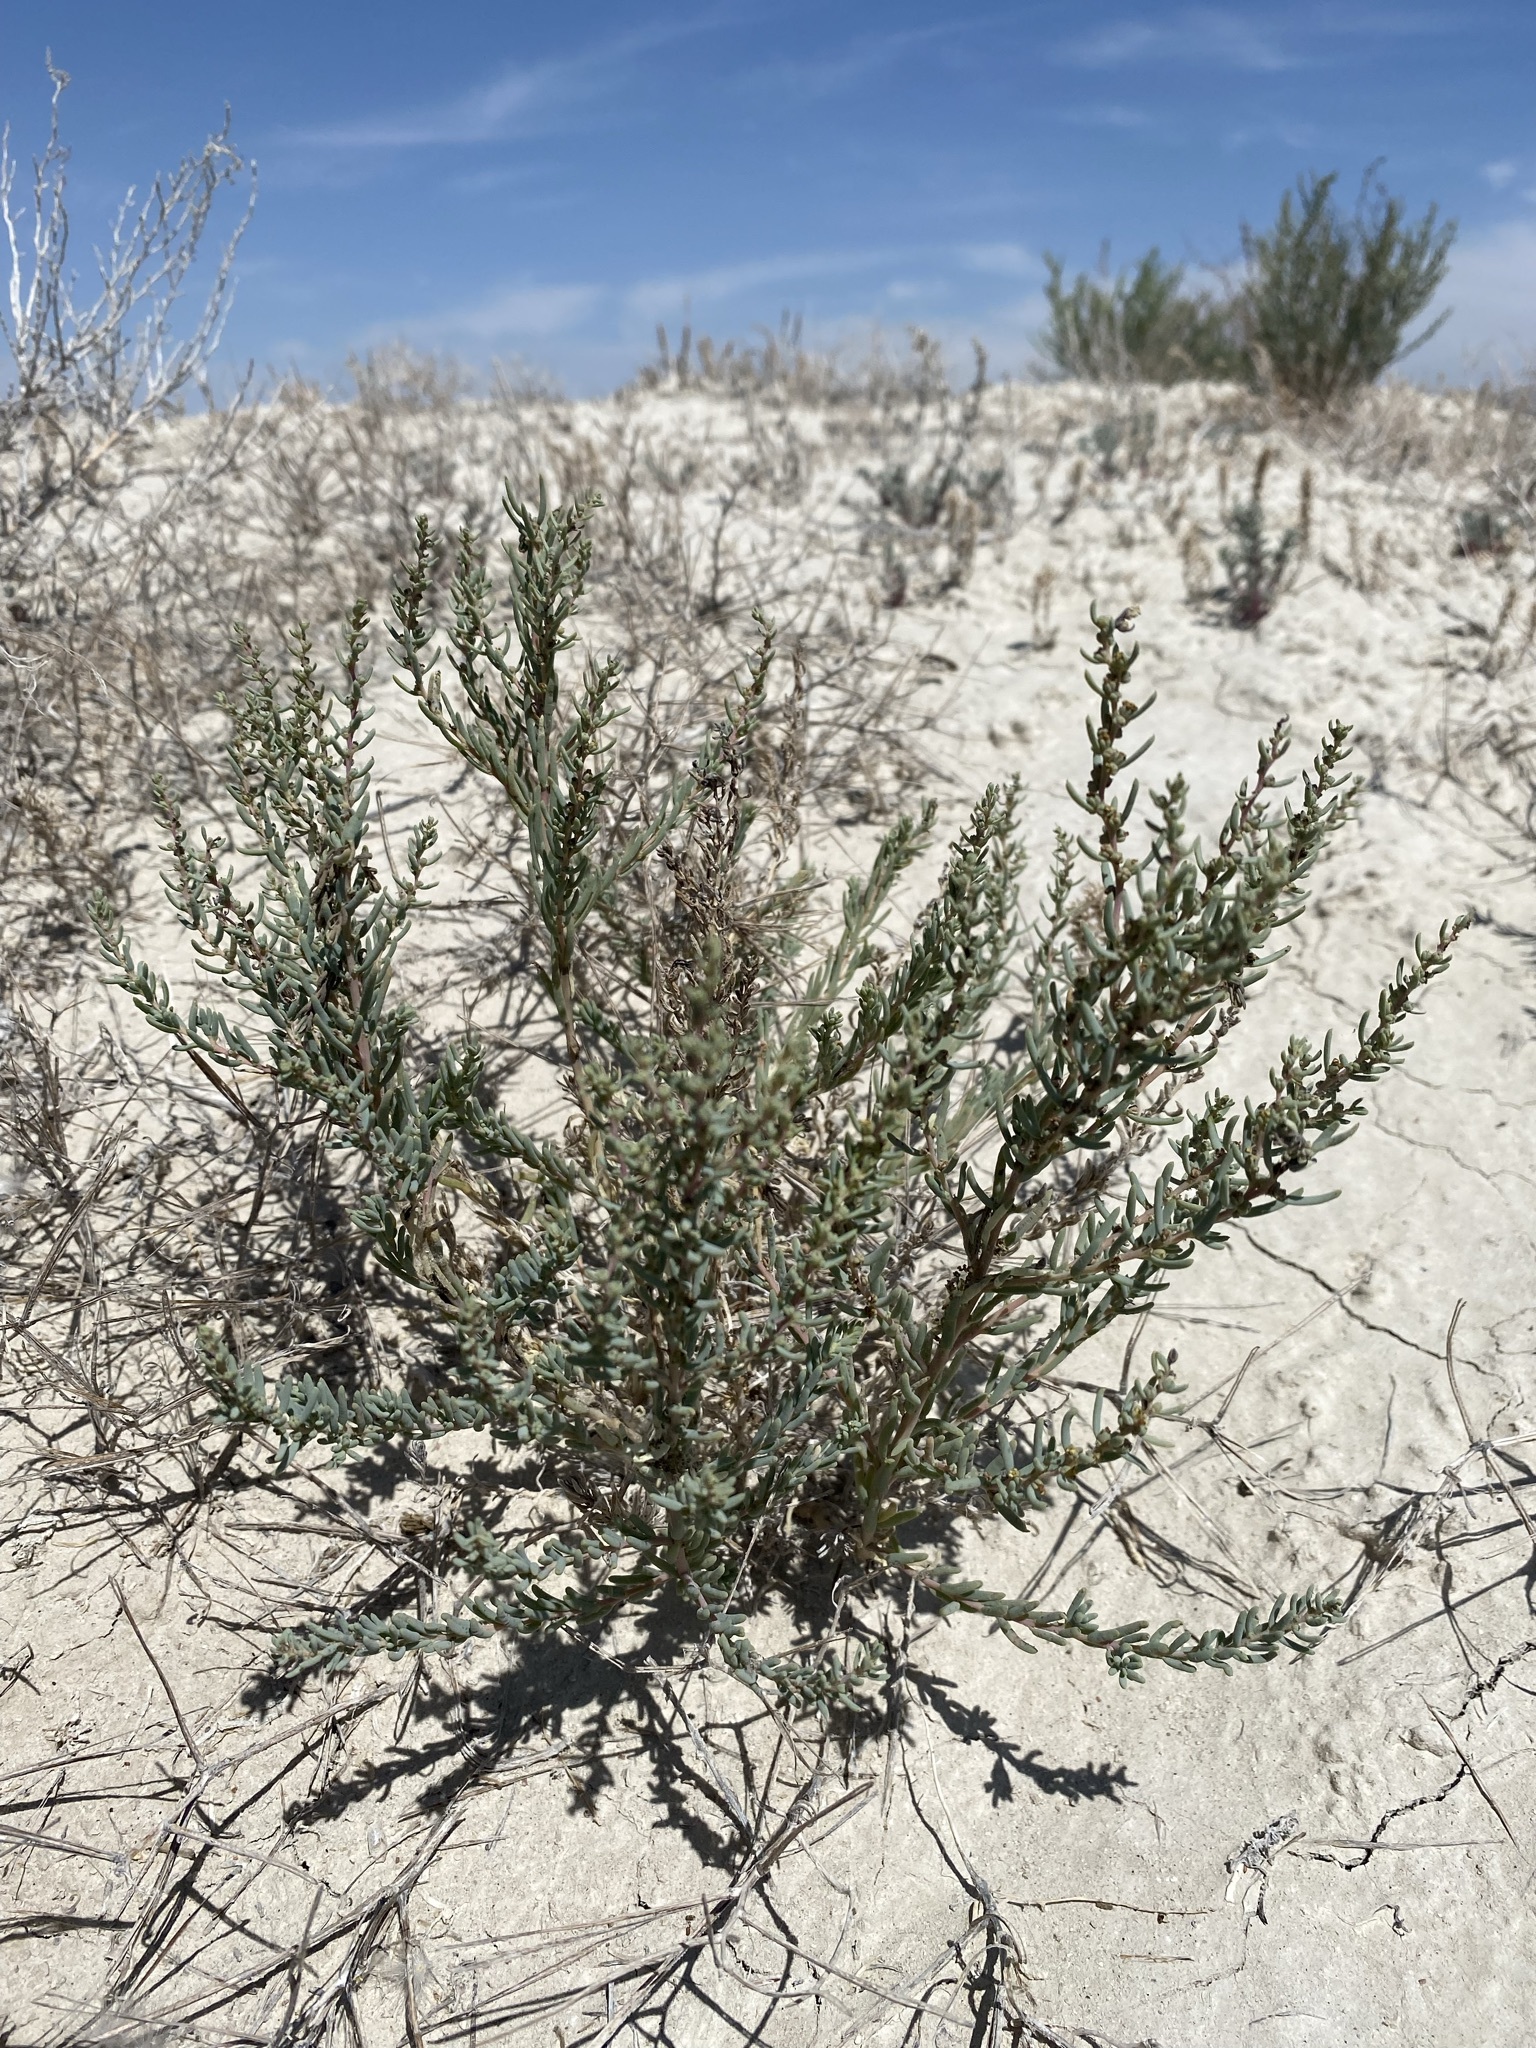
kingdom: Plantae
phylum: Tracheophyta
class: Magnoliopsida
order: Caryophyllales
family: Amaranthaceae
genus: Suaeda
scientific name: Suaeda nigra
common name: Bush seepweed
